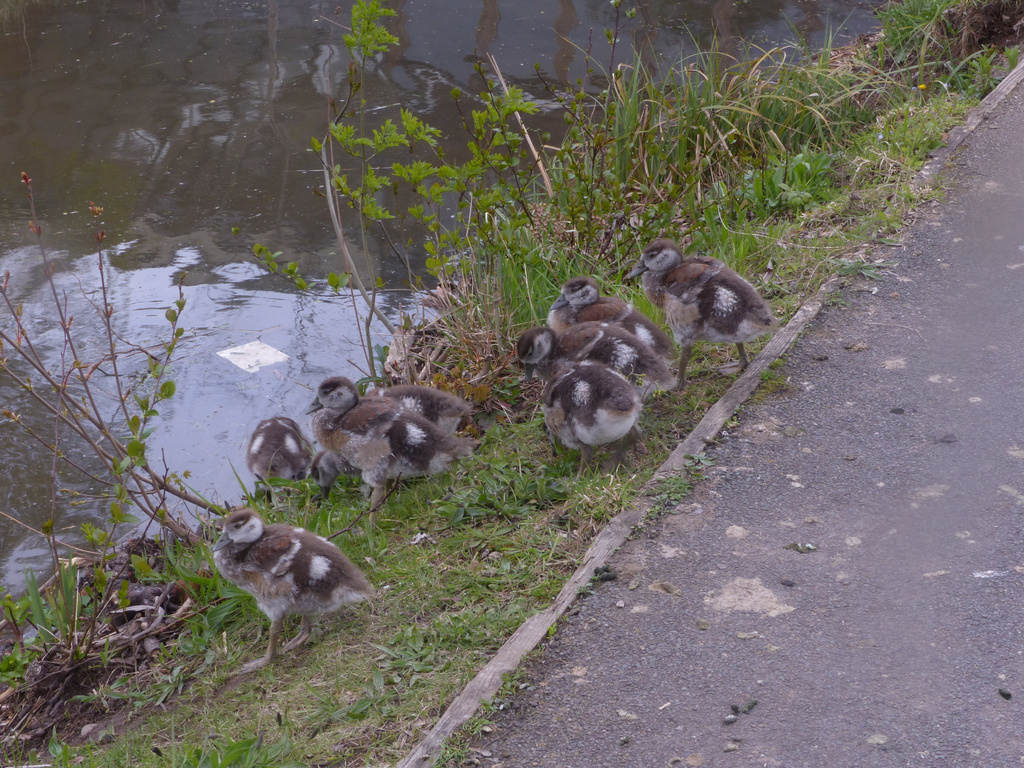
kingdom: Animalia
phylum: Chordata
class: Aves
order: Anseriformes
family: Anatidae
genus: Alopochen
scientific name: Alopochen aegyptiaca
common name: Egyptian goose
